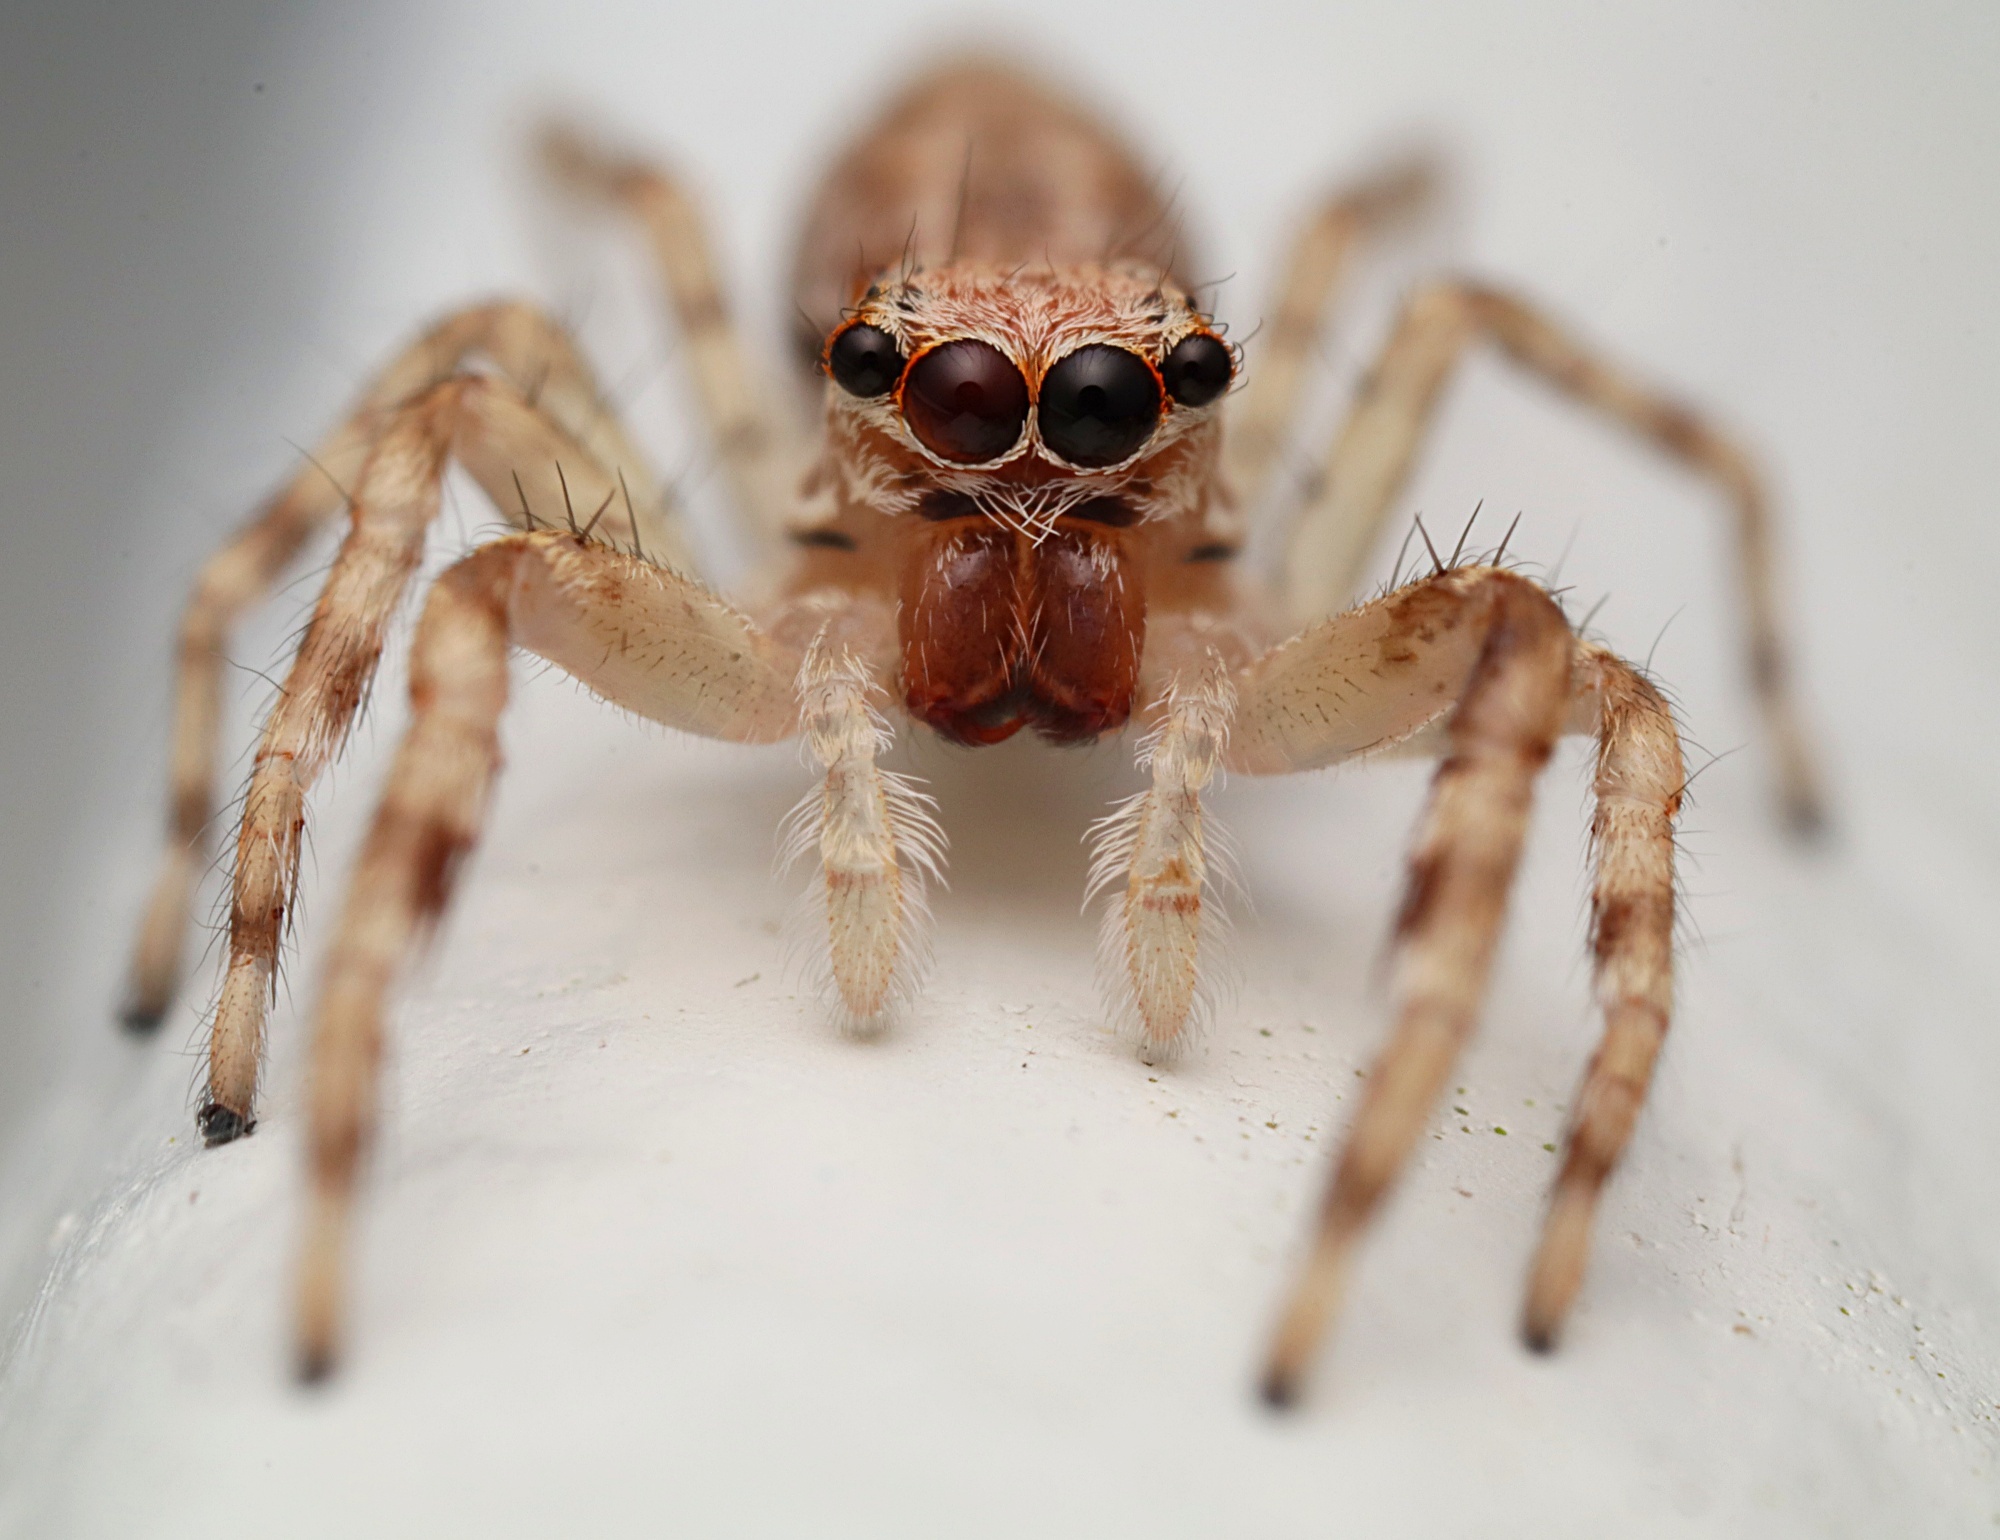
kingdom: Animalia
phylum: Arthropoda
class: Arachnida
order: Araneae
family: Salticidae
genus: Helpis
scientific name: Helpis minitabunda
